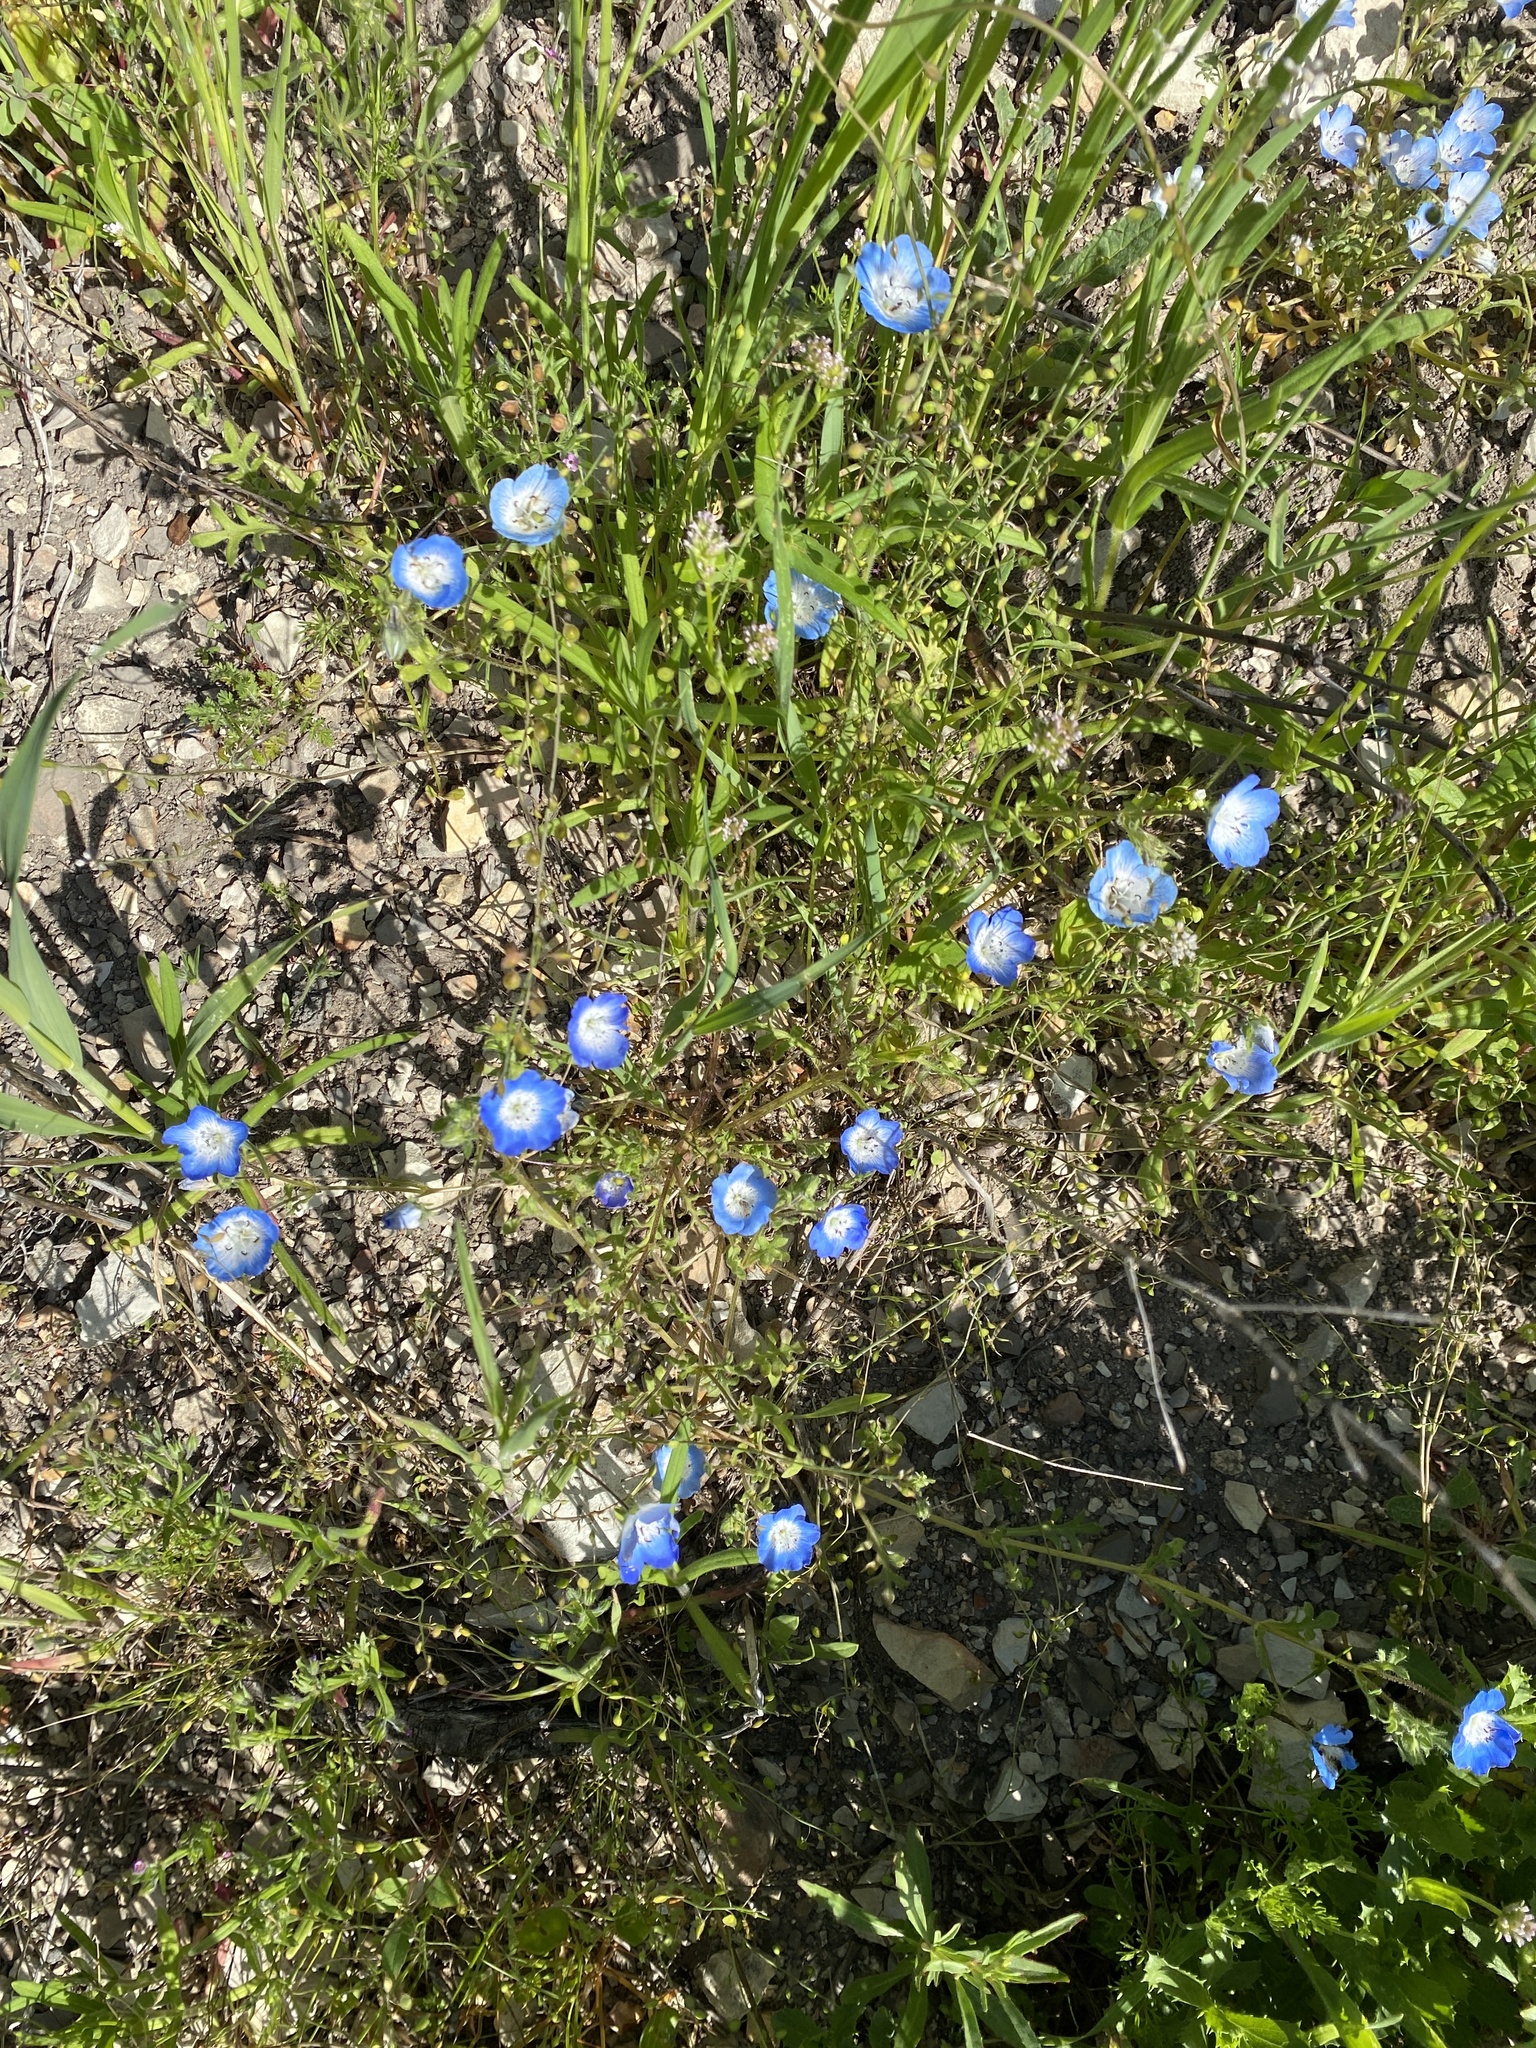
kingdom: Plantae
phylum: Tracheophyta
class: Magnoliopsida
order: Boraginales
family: Hydrophyllaceae
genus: Nemophila
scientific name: Nemophila menziesii
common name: Baby's-blue-eyes
